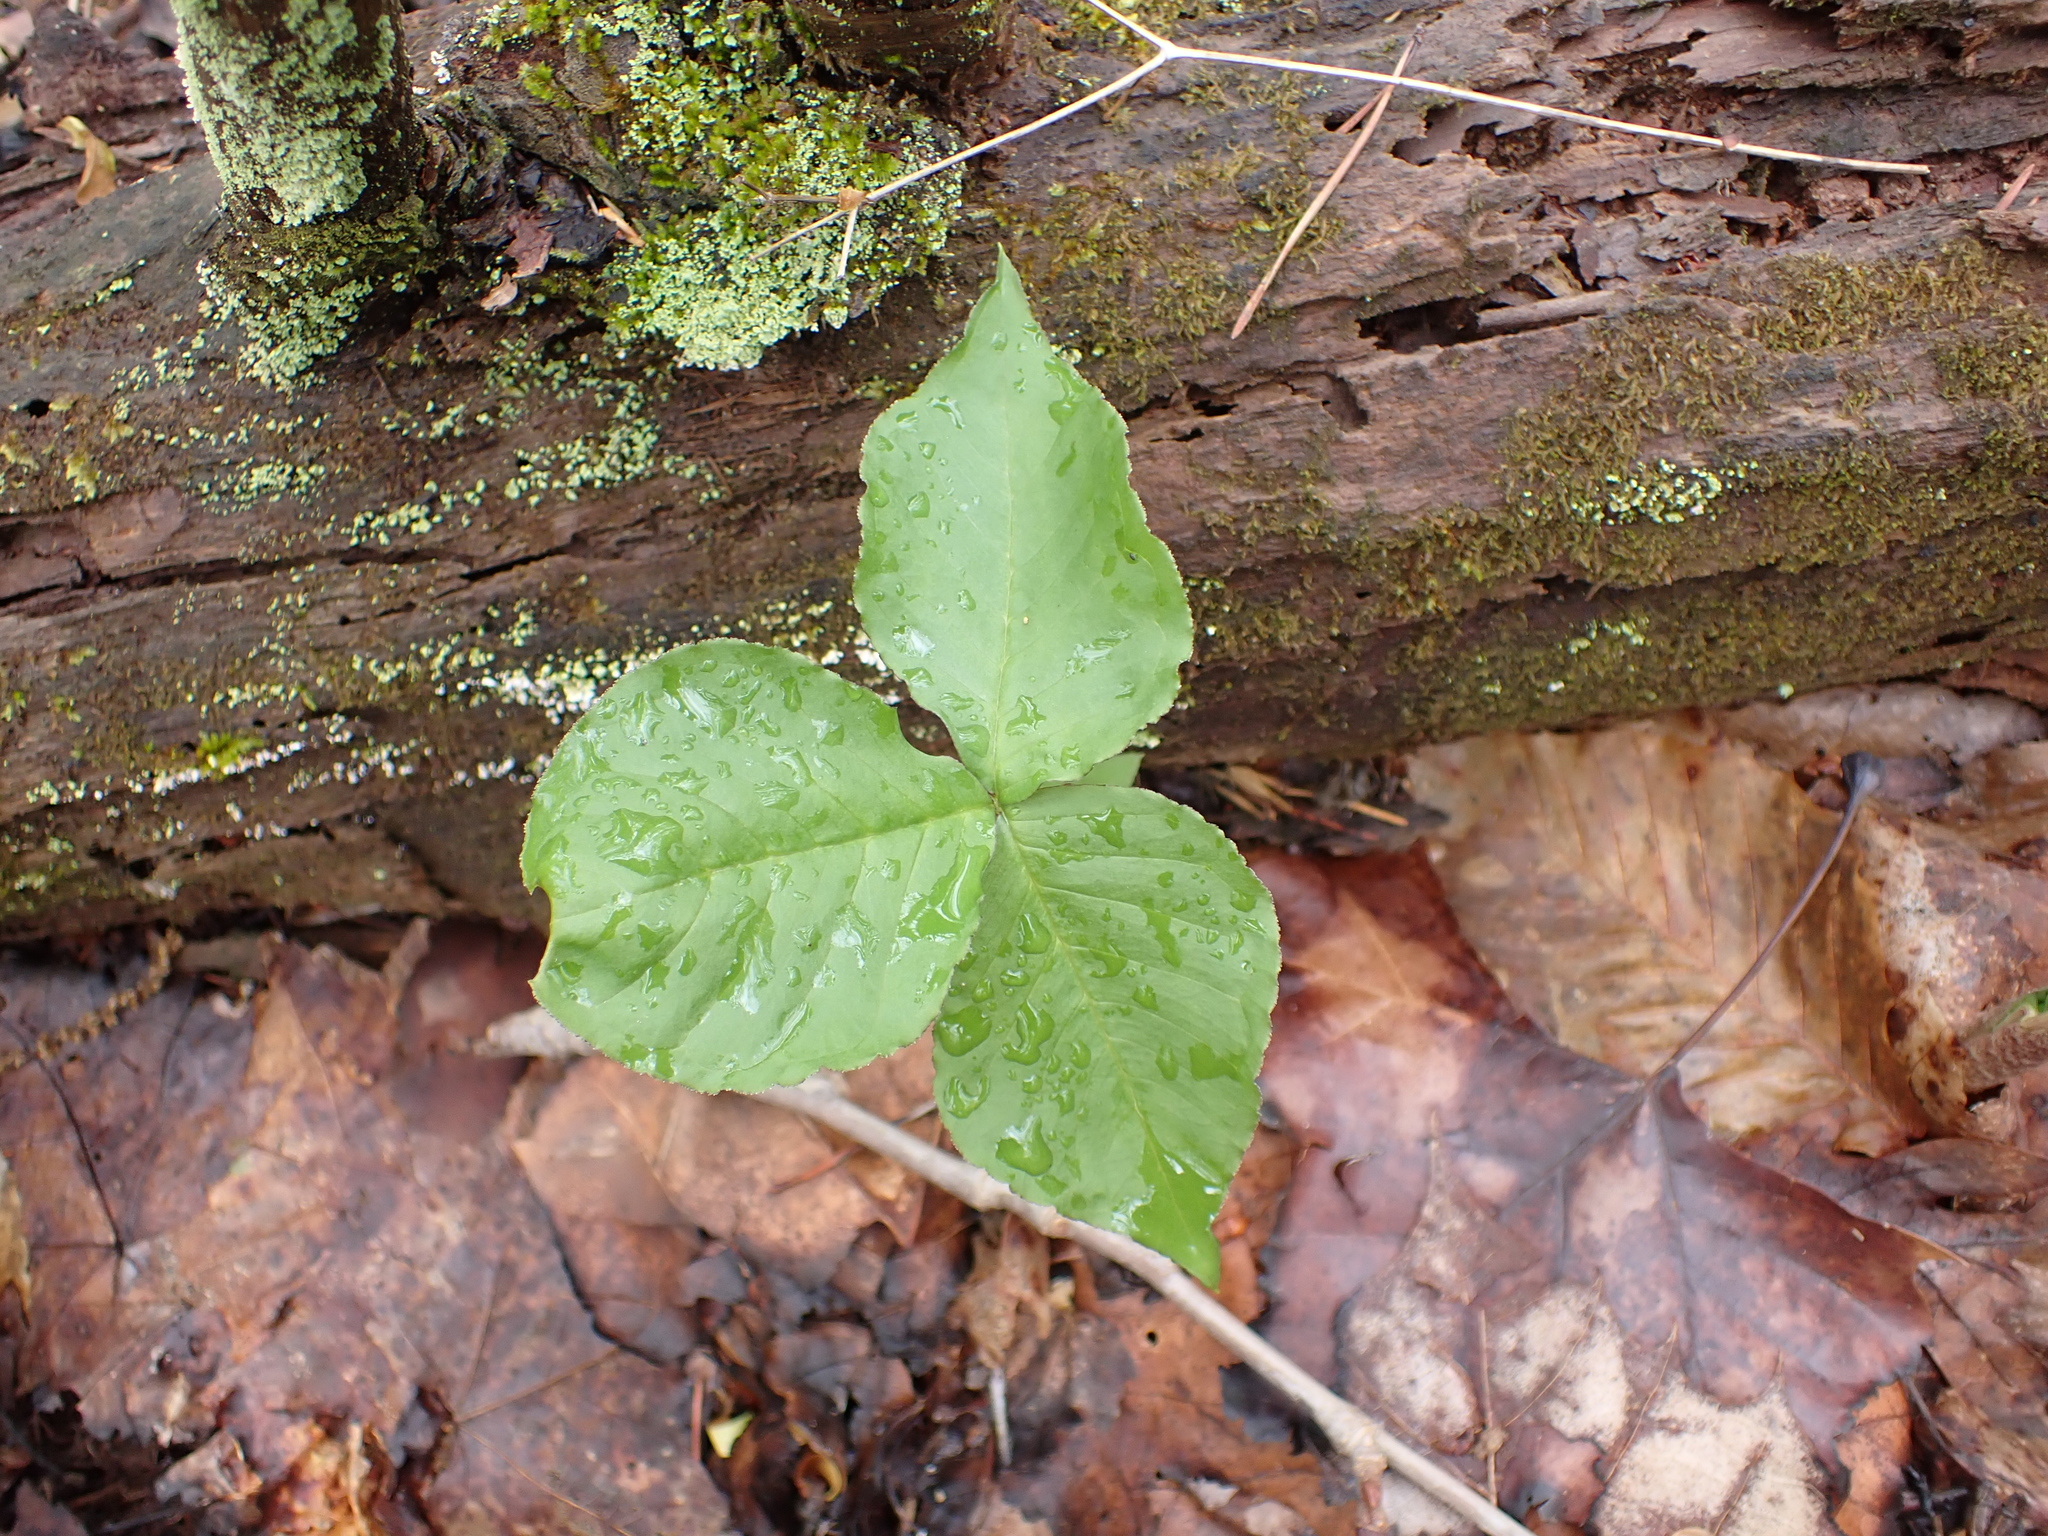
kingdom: Plantae
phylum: Tracheophyta
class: Liliopsida
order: Alismatales
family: Araceae
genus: Arisaema
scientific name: Arisaema triphyllum
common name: Jack-in-the-pulpit
